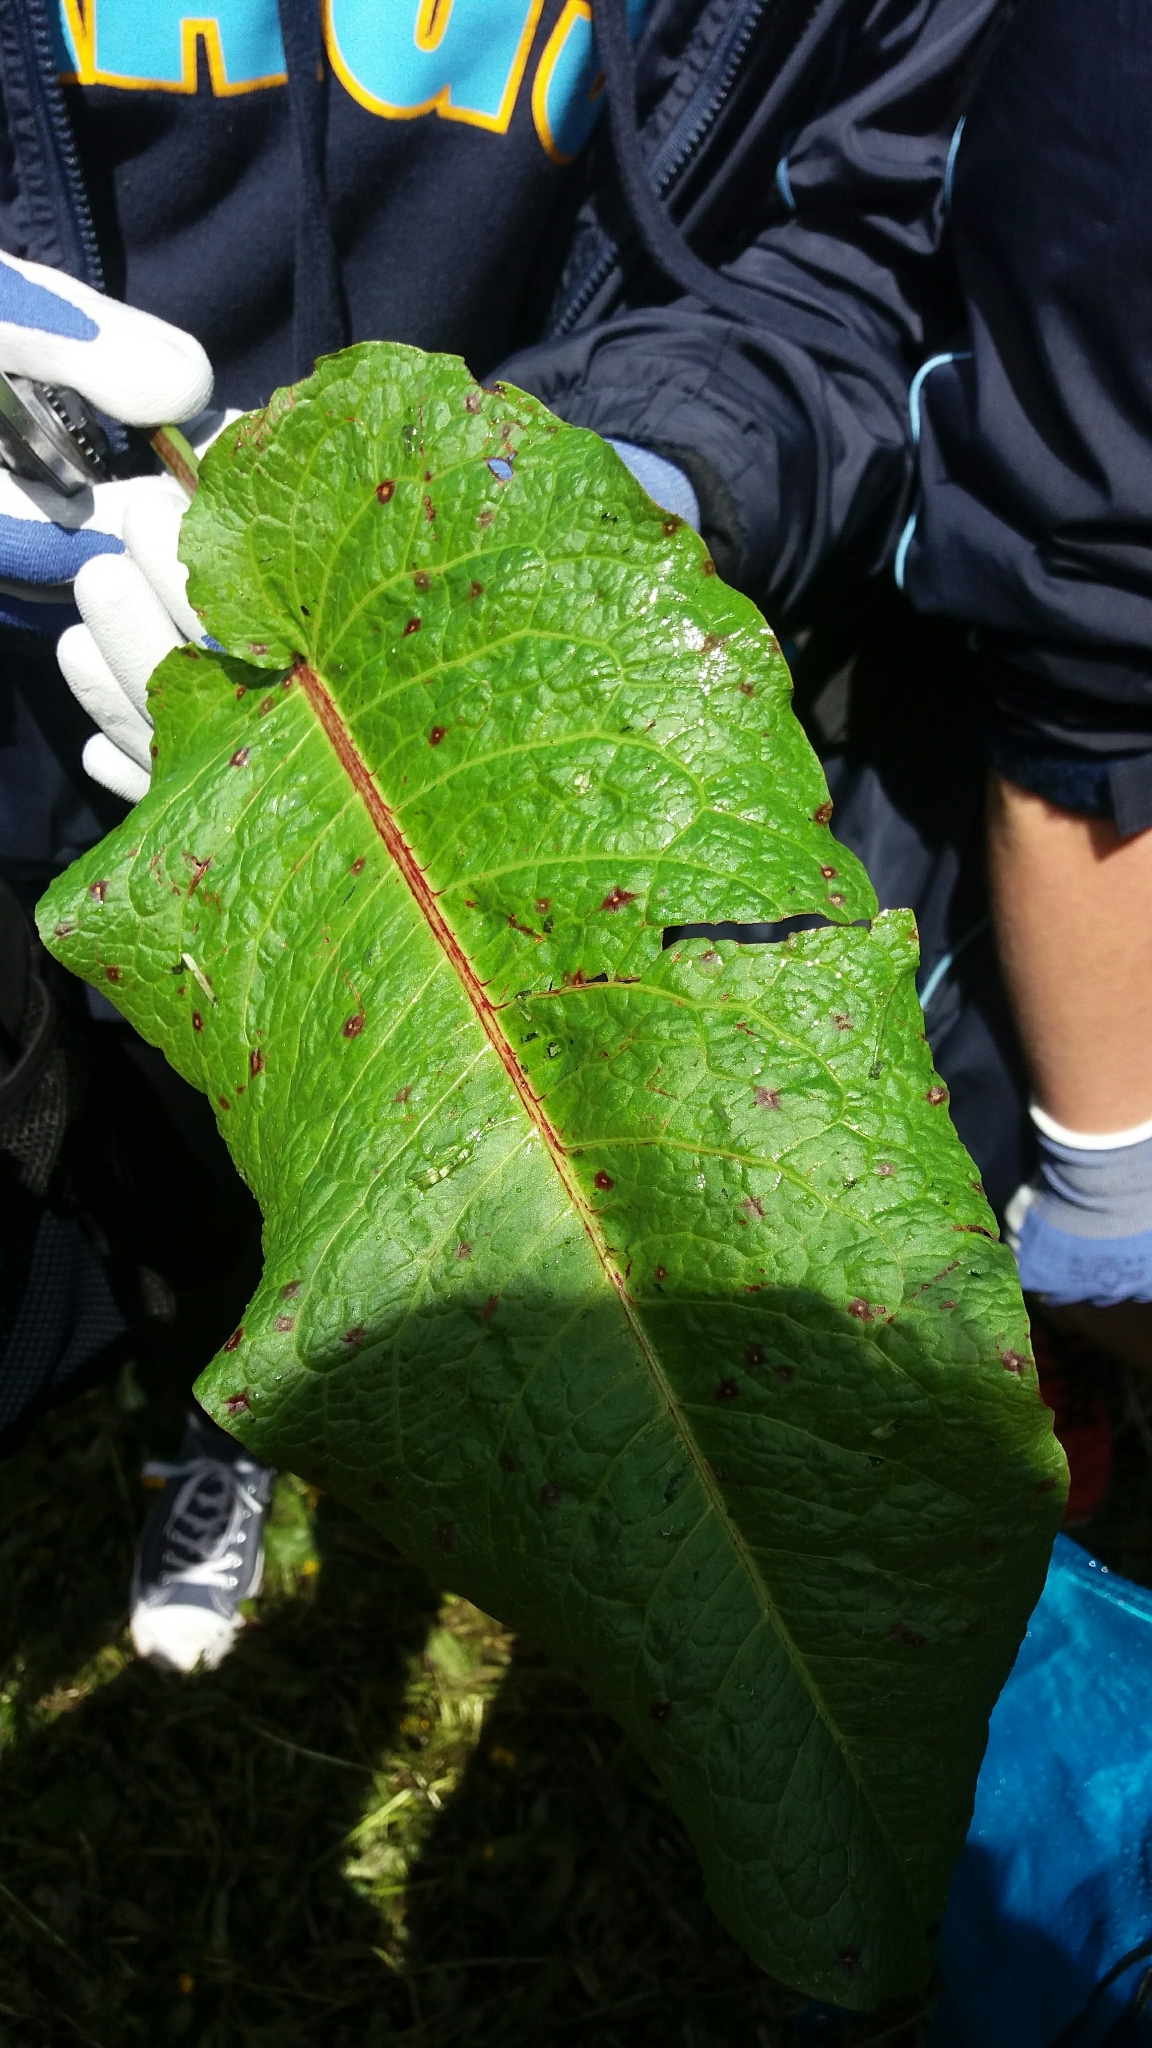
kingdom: Plantae
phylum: Tracheophyta
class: Magnoliopsida
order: Caryophyllales
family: Polygonaceae
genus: Rumex
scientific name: Rumex obtusifolius
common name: Bitter dock
